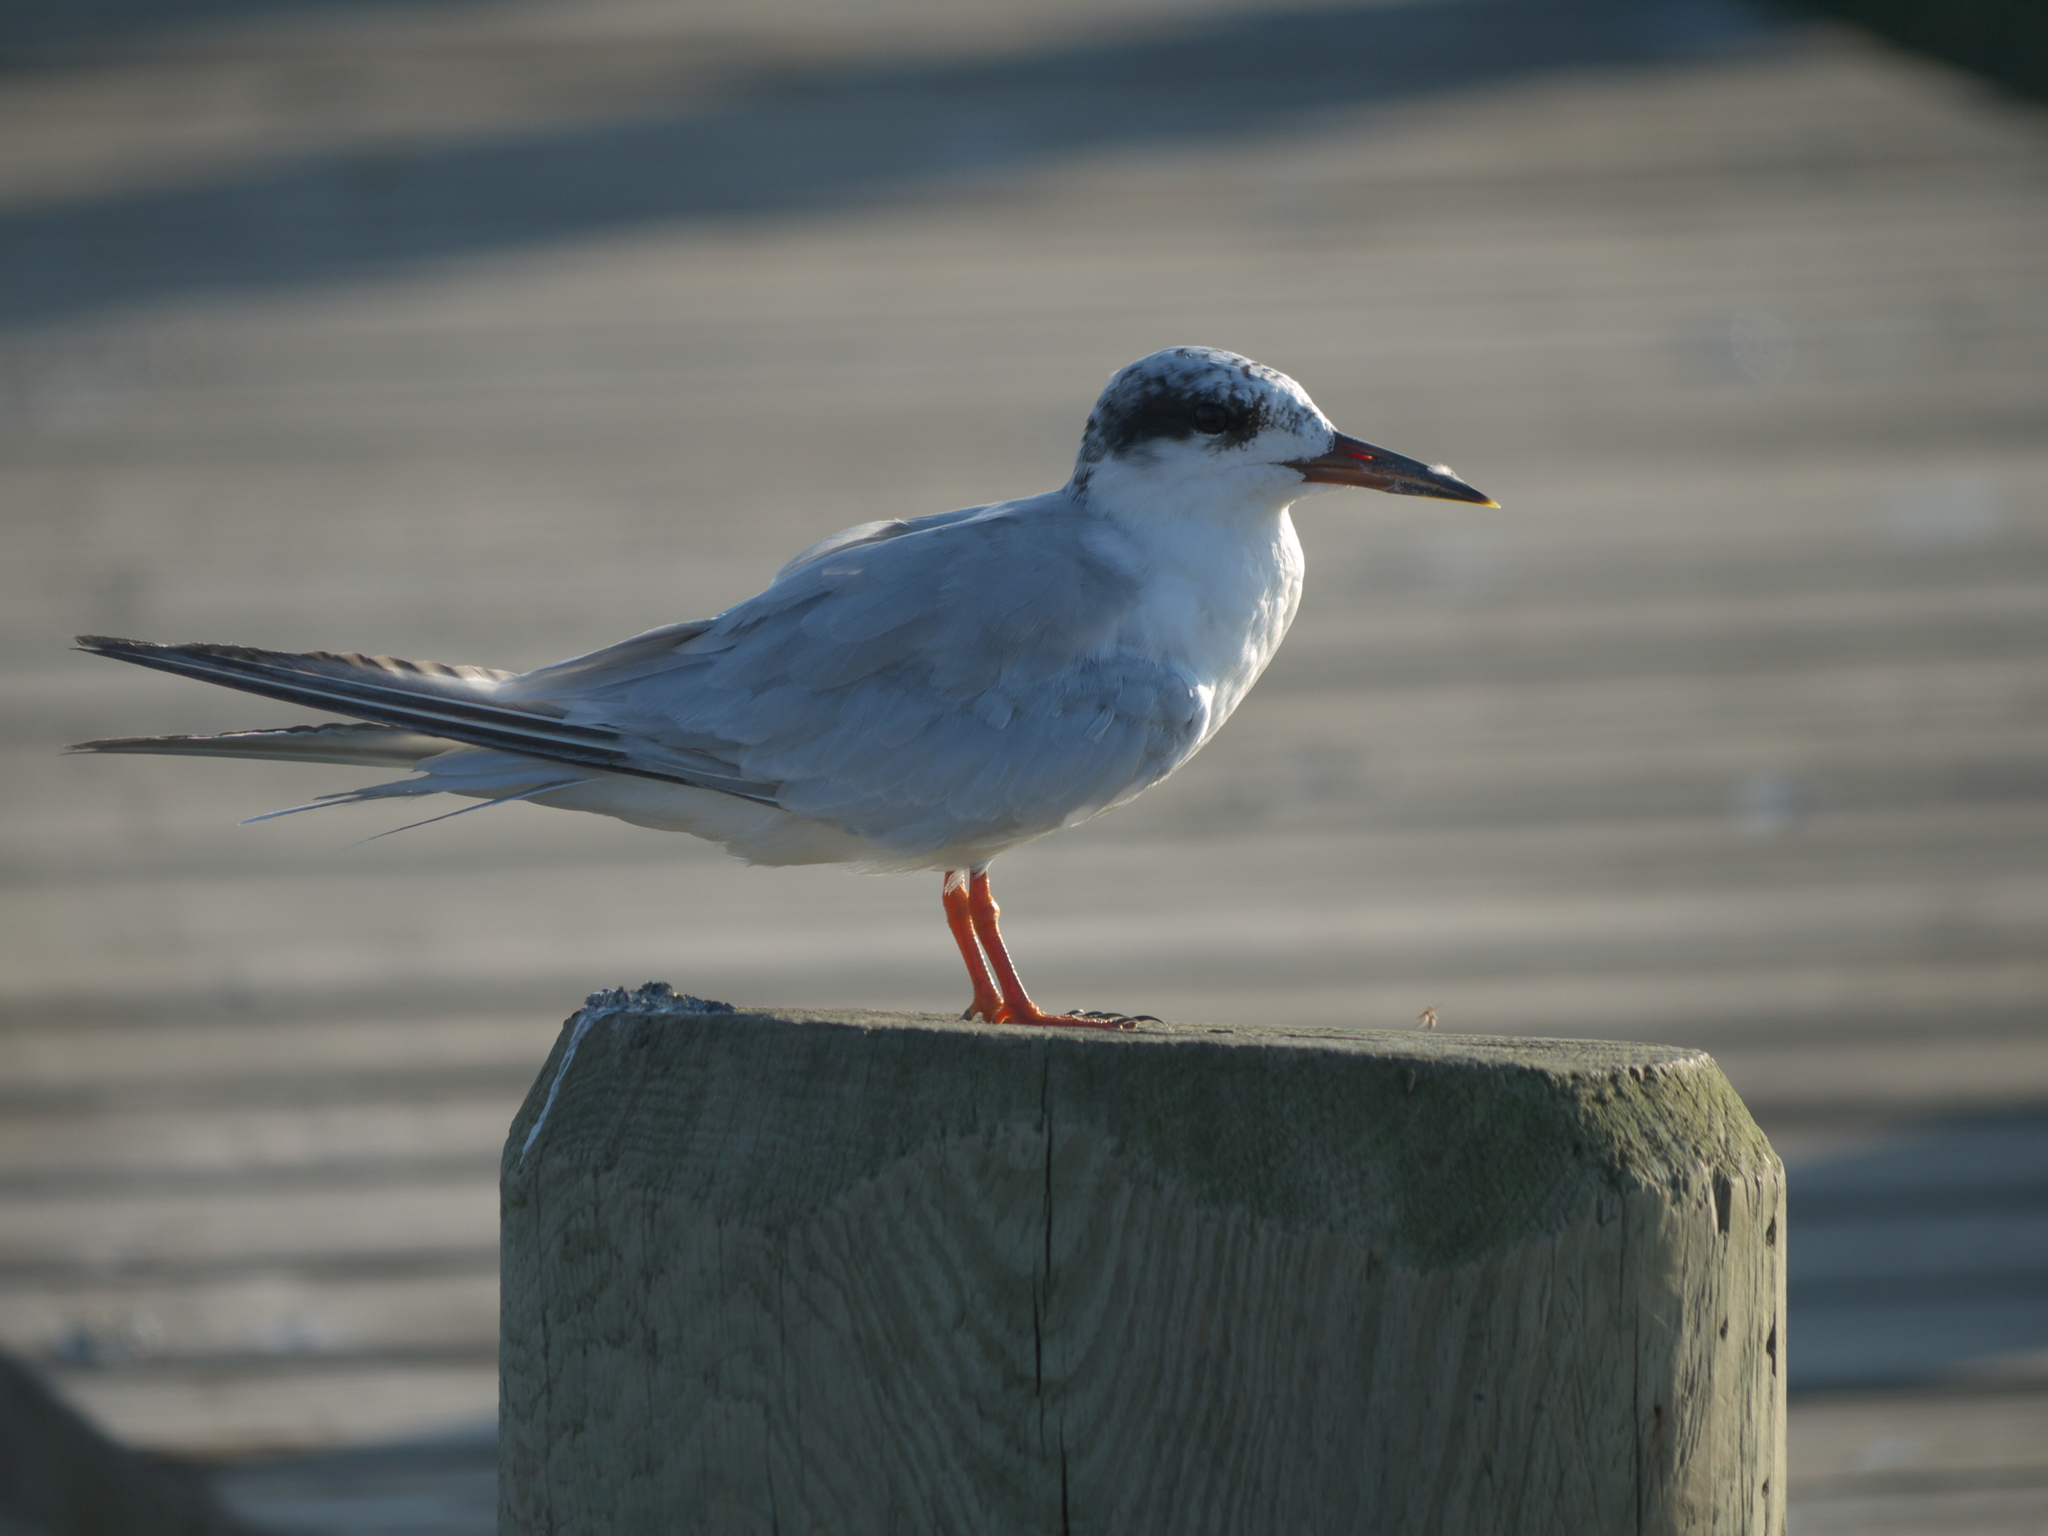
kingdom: Animalia
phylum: Chordata
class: Aves
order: Charadriiformes
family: Laridae
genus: Sterna
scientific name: Sterna forsteri
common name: Forster's tern
